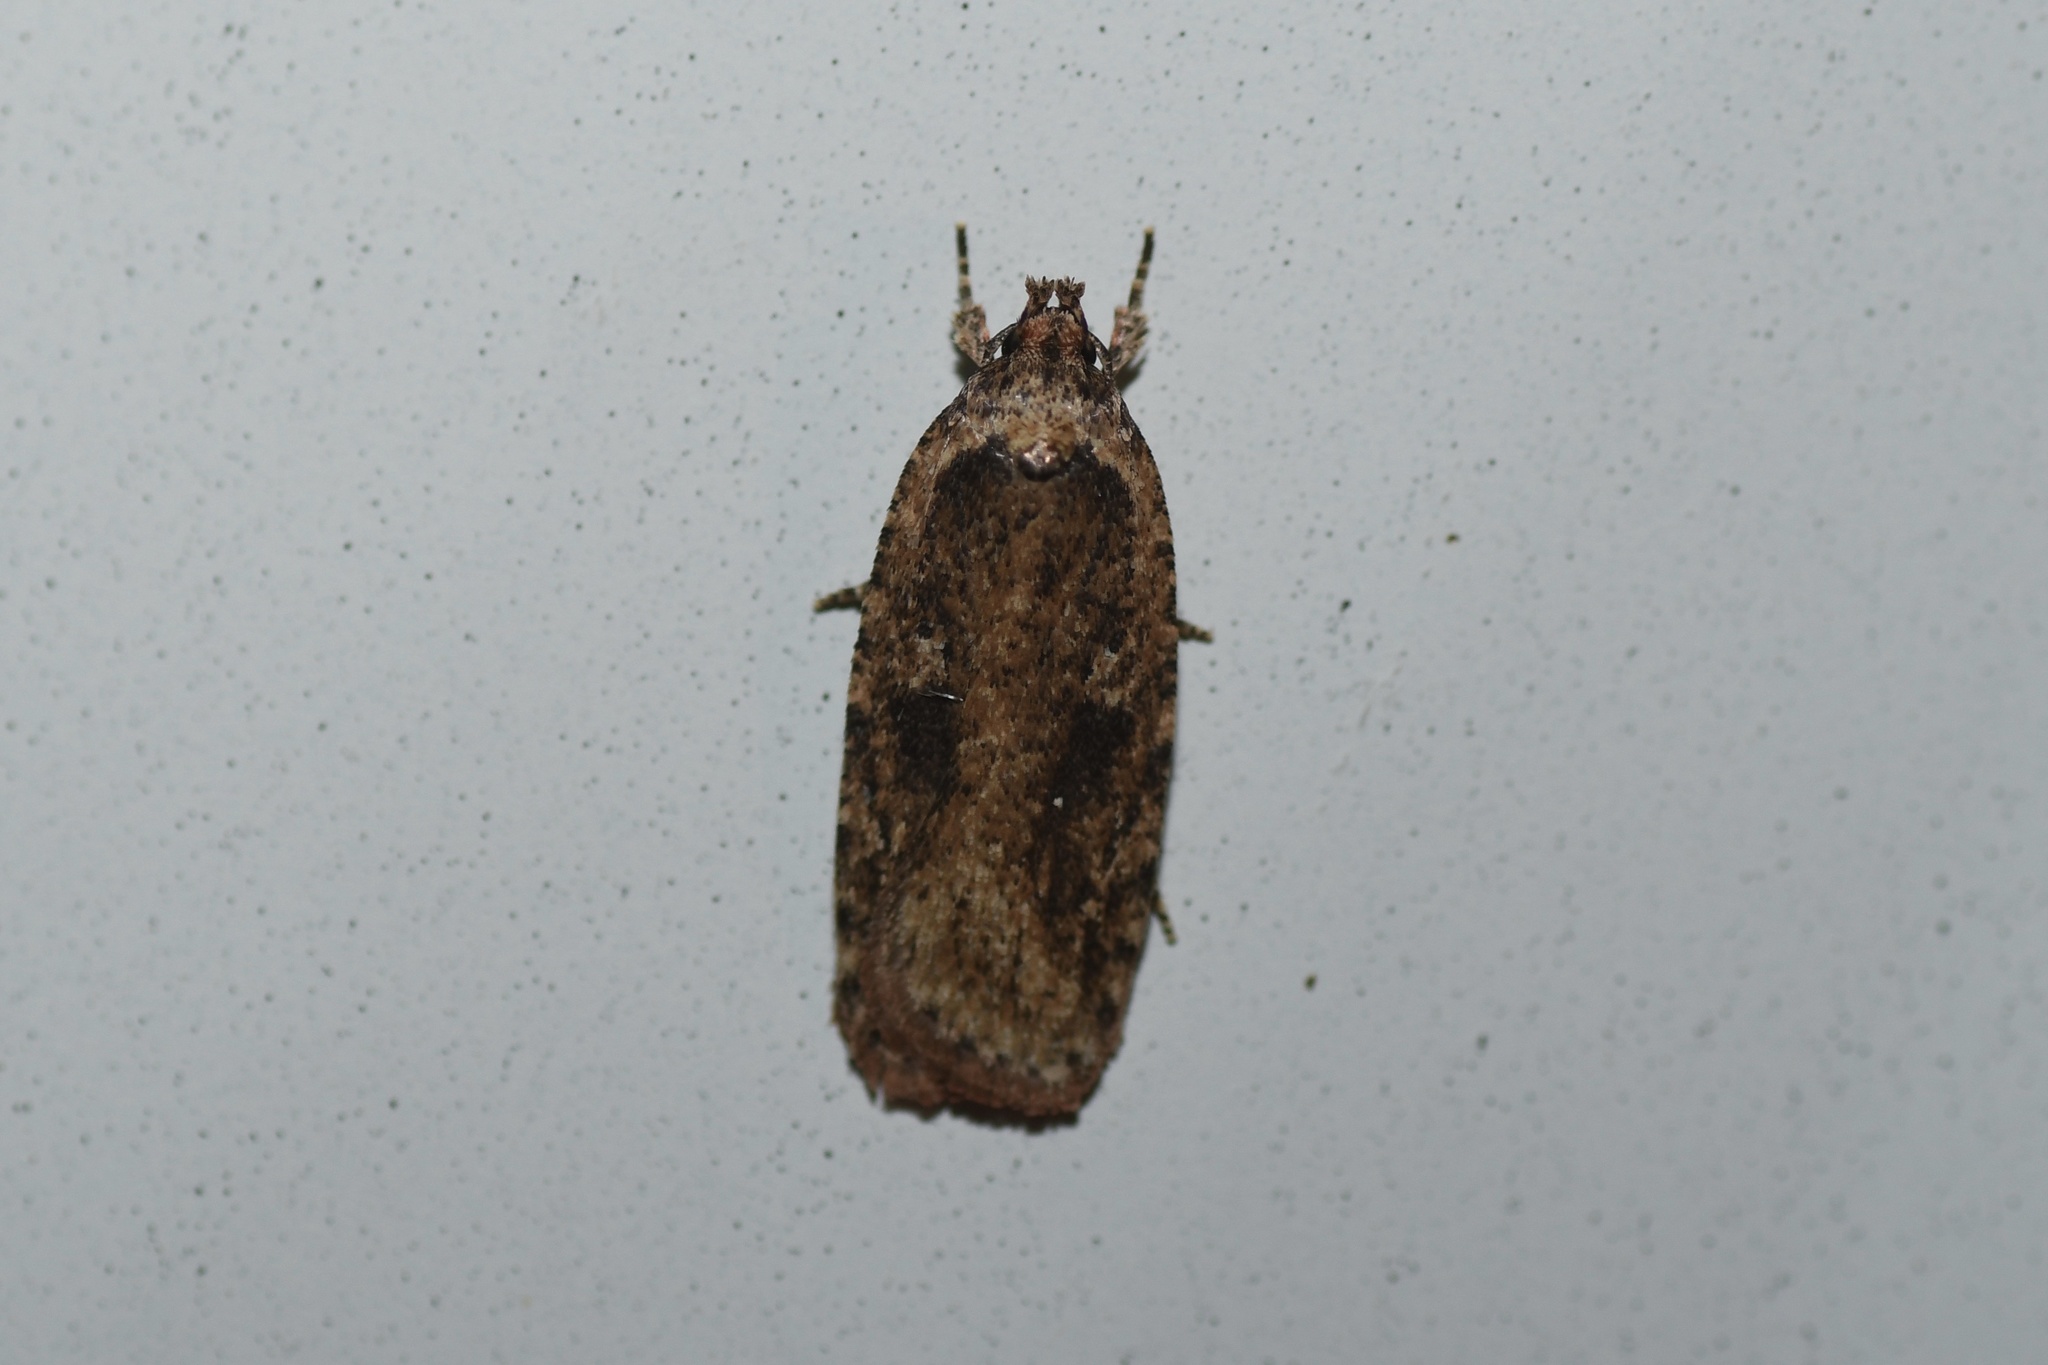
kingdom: Animalia
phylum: Arthropoda
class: Insecta
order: Lepidoptera
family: Depressariidae
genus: Agonopterix
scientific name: Agonopterix pulvipennella
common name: Goldenrod leafffolder
